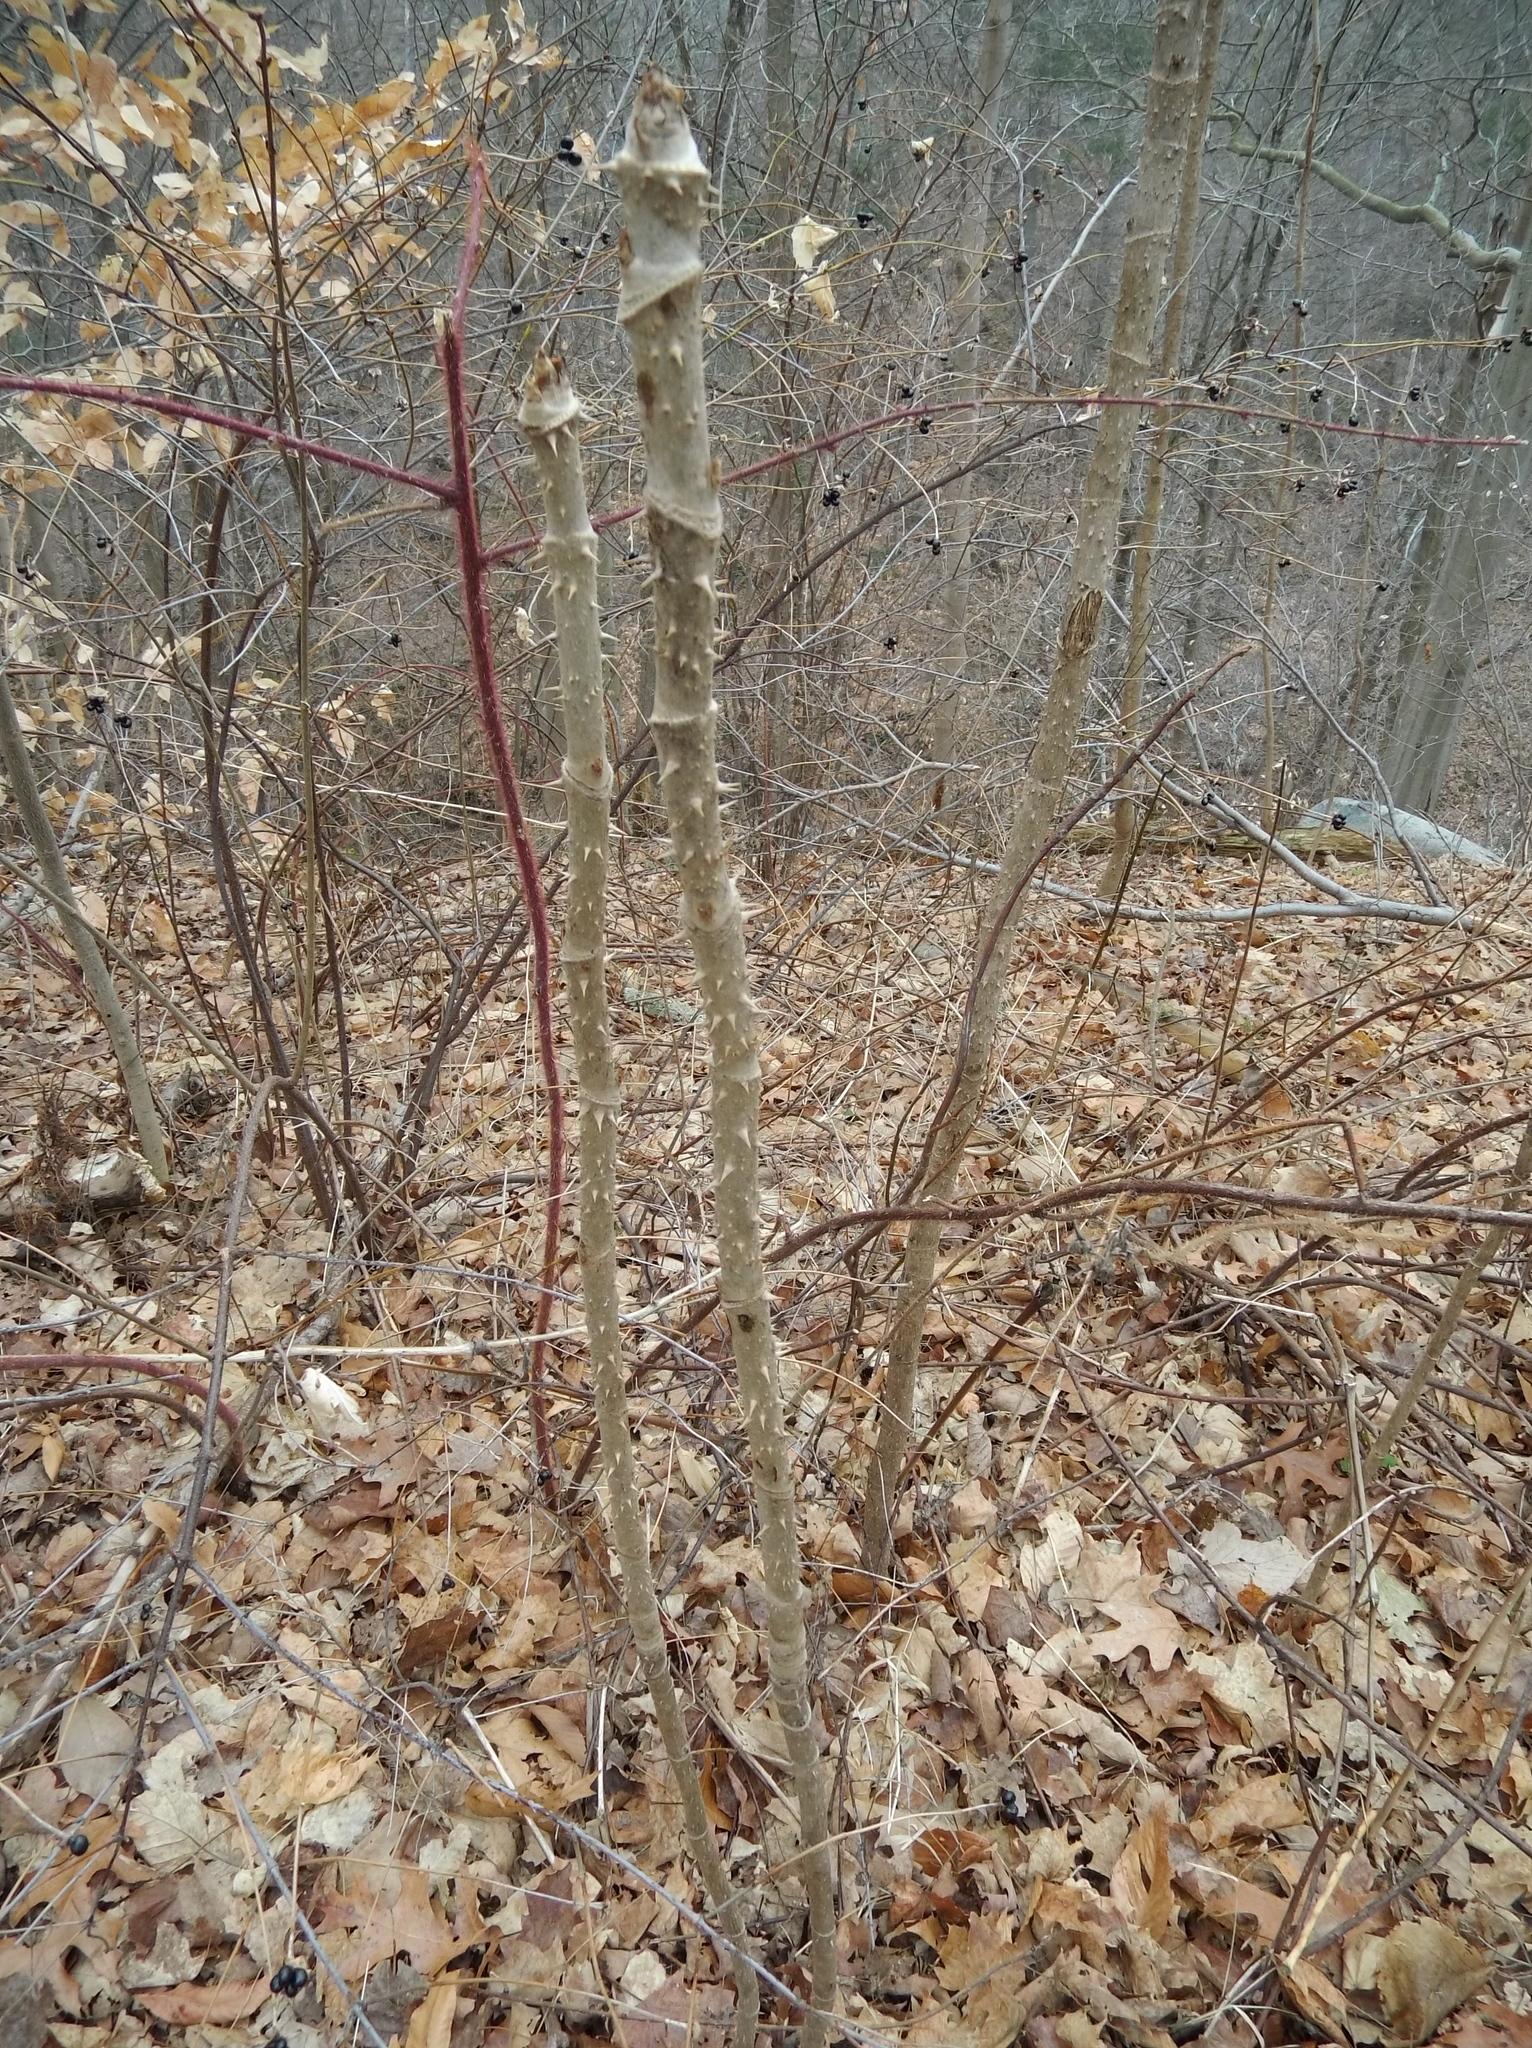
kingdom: Plantae
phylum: Tracheophyta
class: Magnoliopsida
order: Apiales
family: Araliaceae
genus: Aralia
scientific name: Aralia elata
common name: Japanese angelica-tree
